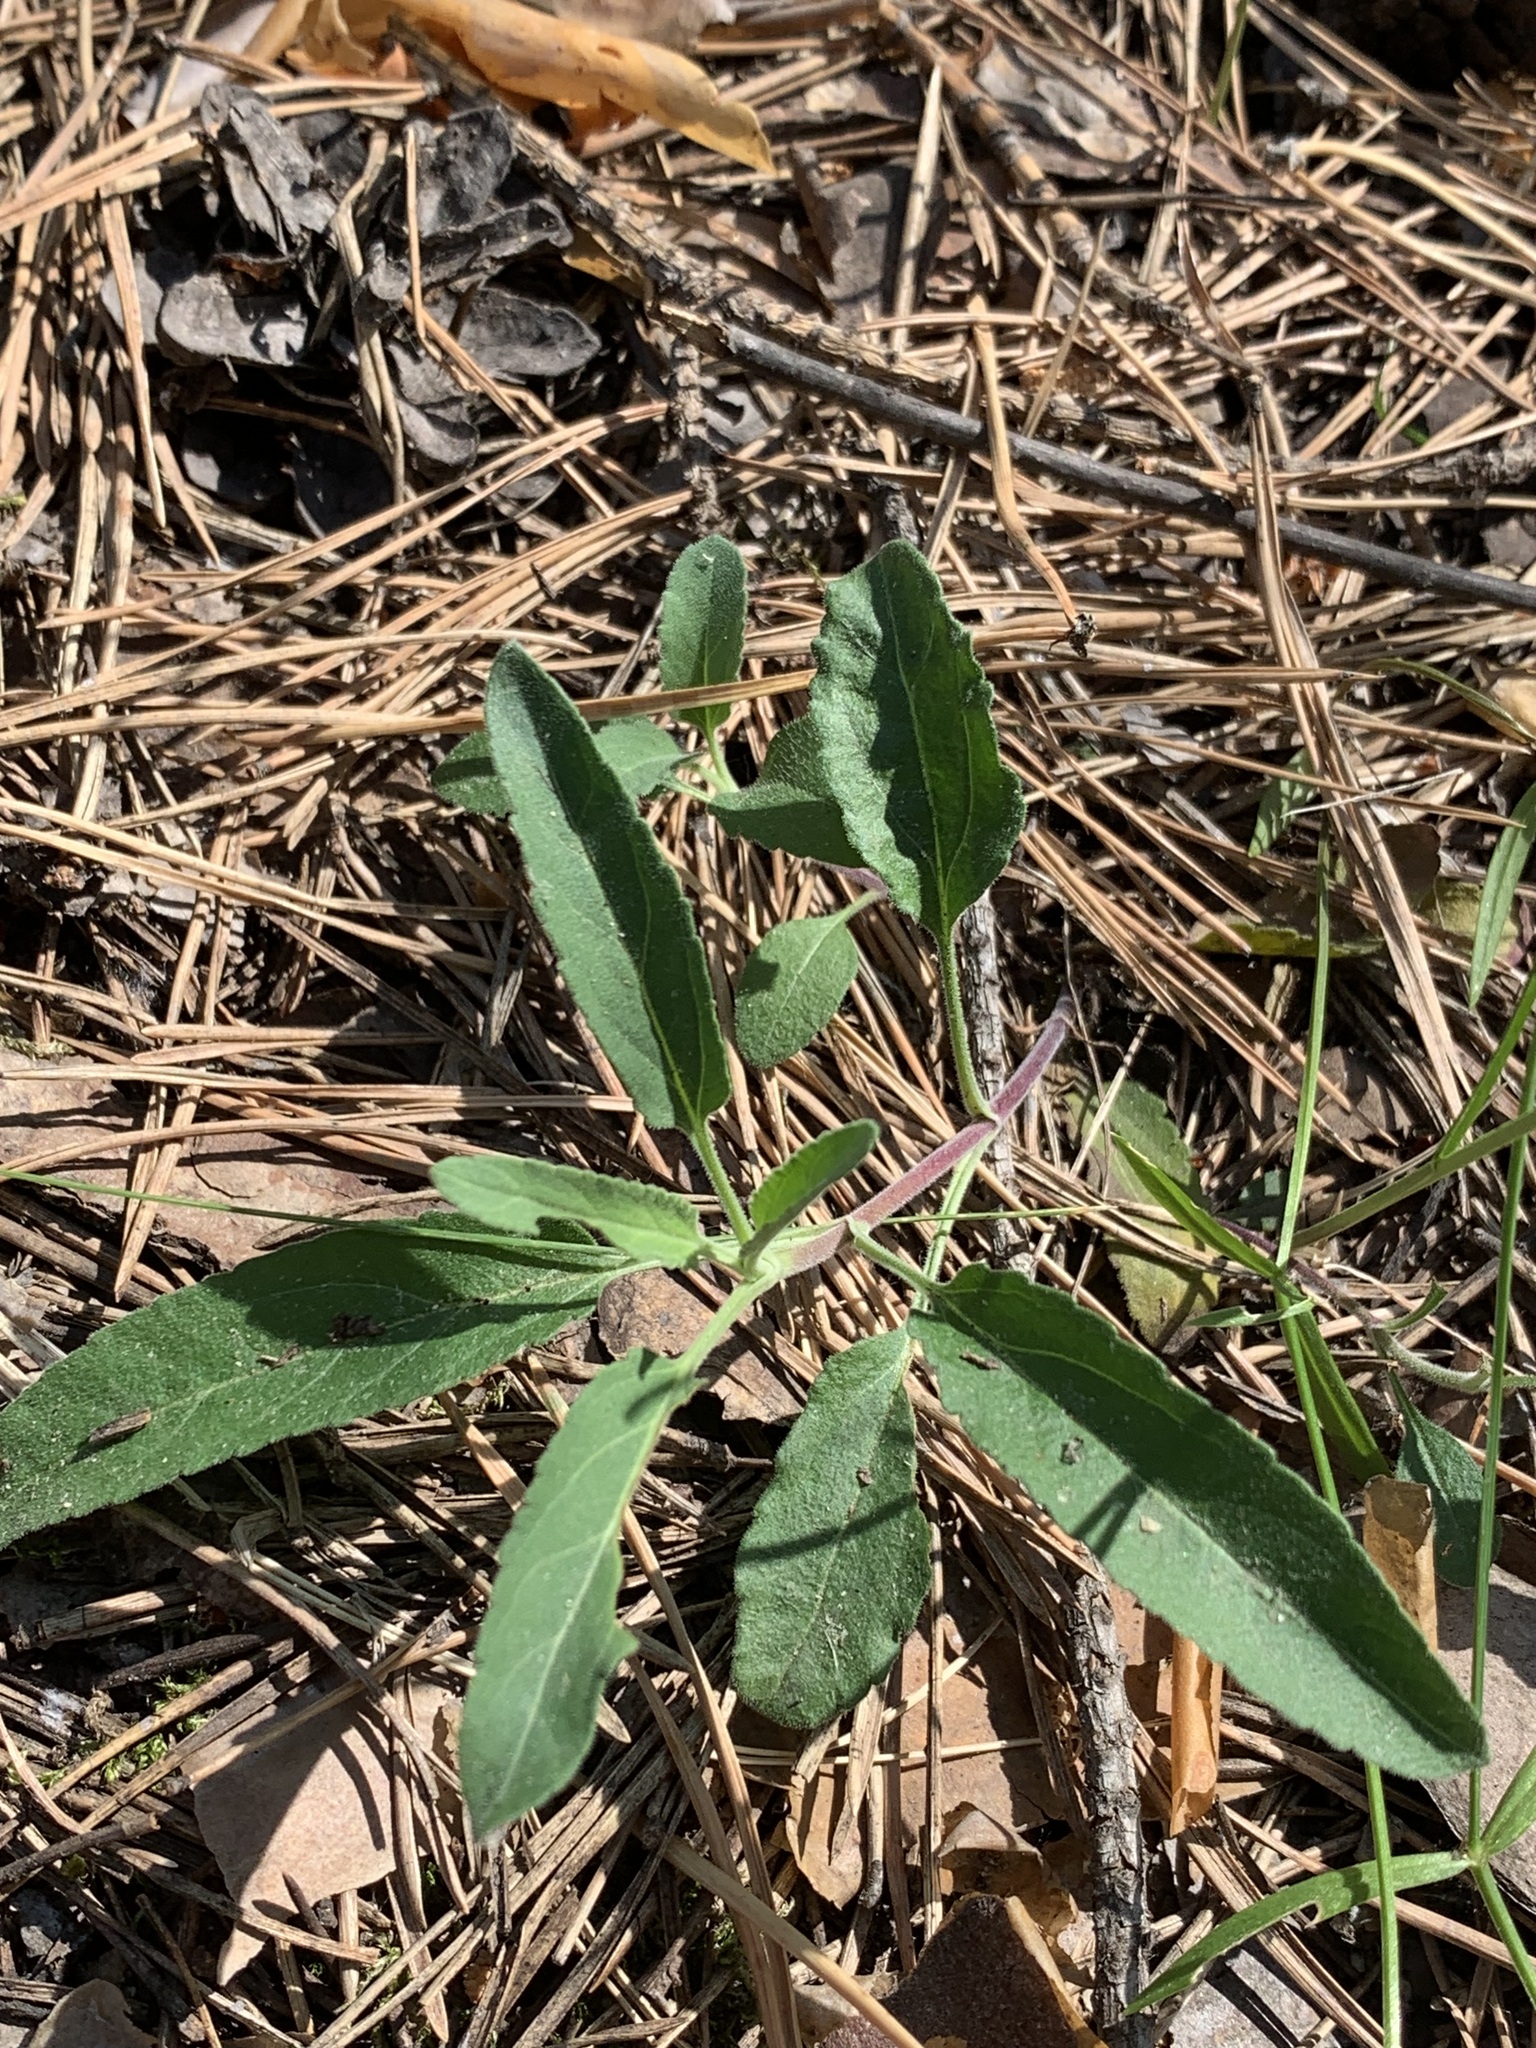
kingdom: Plantae
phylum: Tracheophyta
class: Magnoliopsida
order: Lamiales
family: Plantaginaceae
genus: Veronica
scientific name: Veronica spicata
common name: Spiked speedwell
